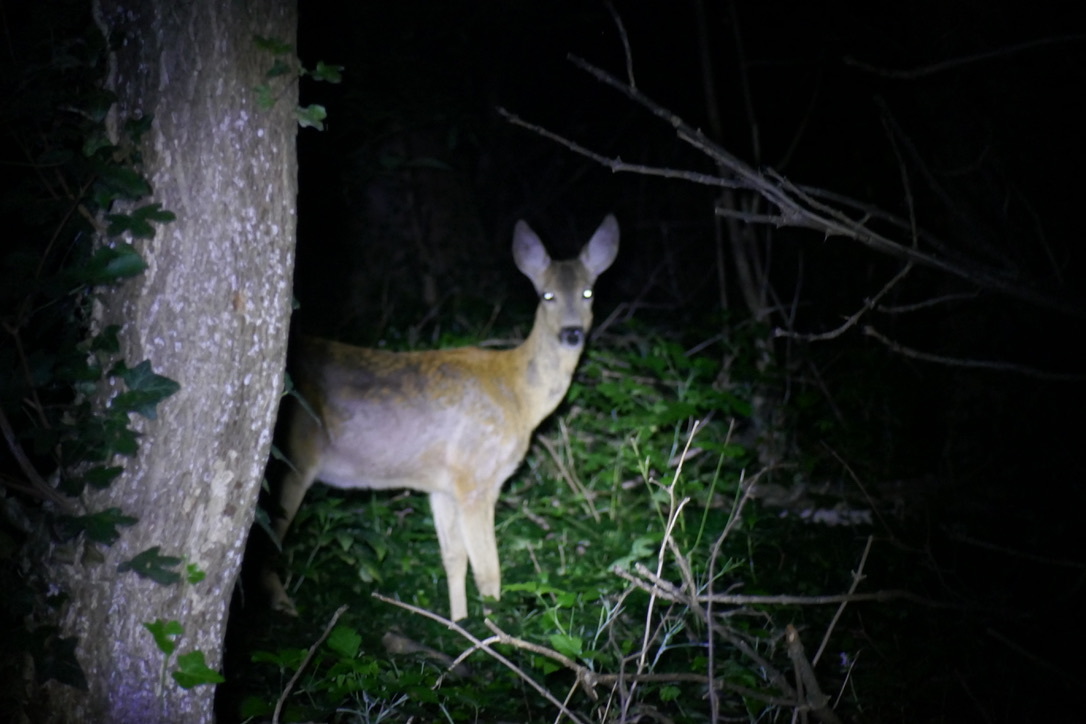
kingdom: Animalia
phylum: Chordata
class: Mammalia
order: Artiodactyla
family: Cervidae
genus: Capreolus
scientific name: Capreolus capreolus
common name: Western roe deer
